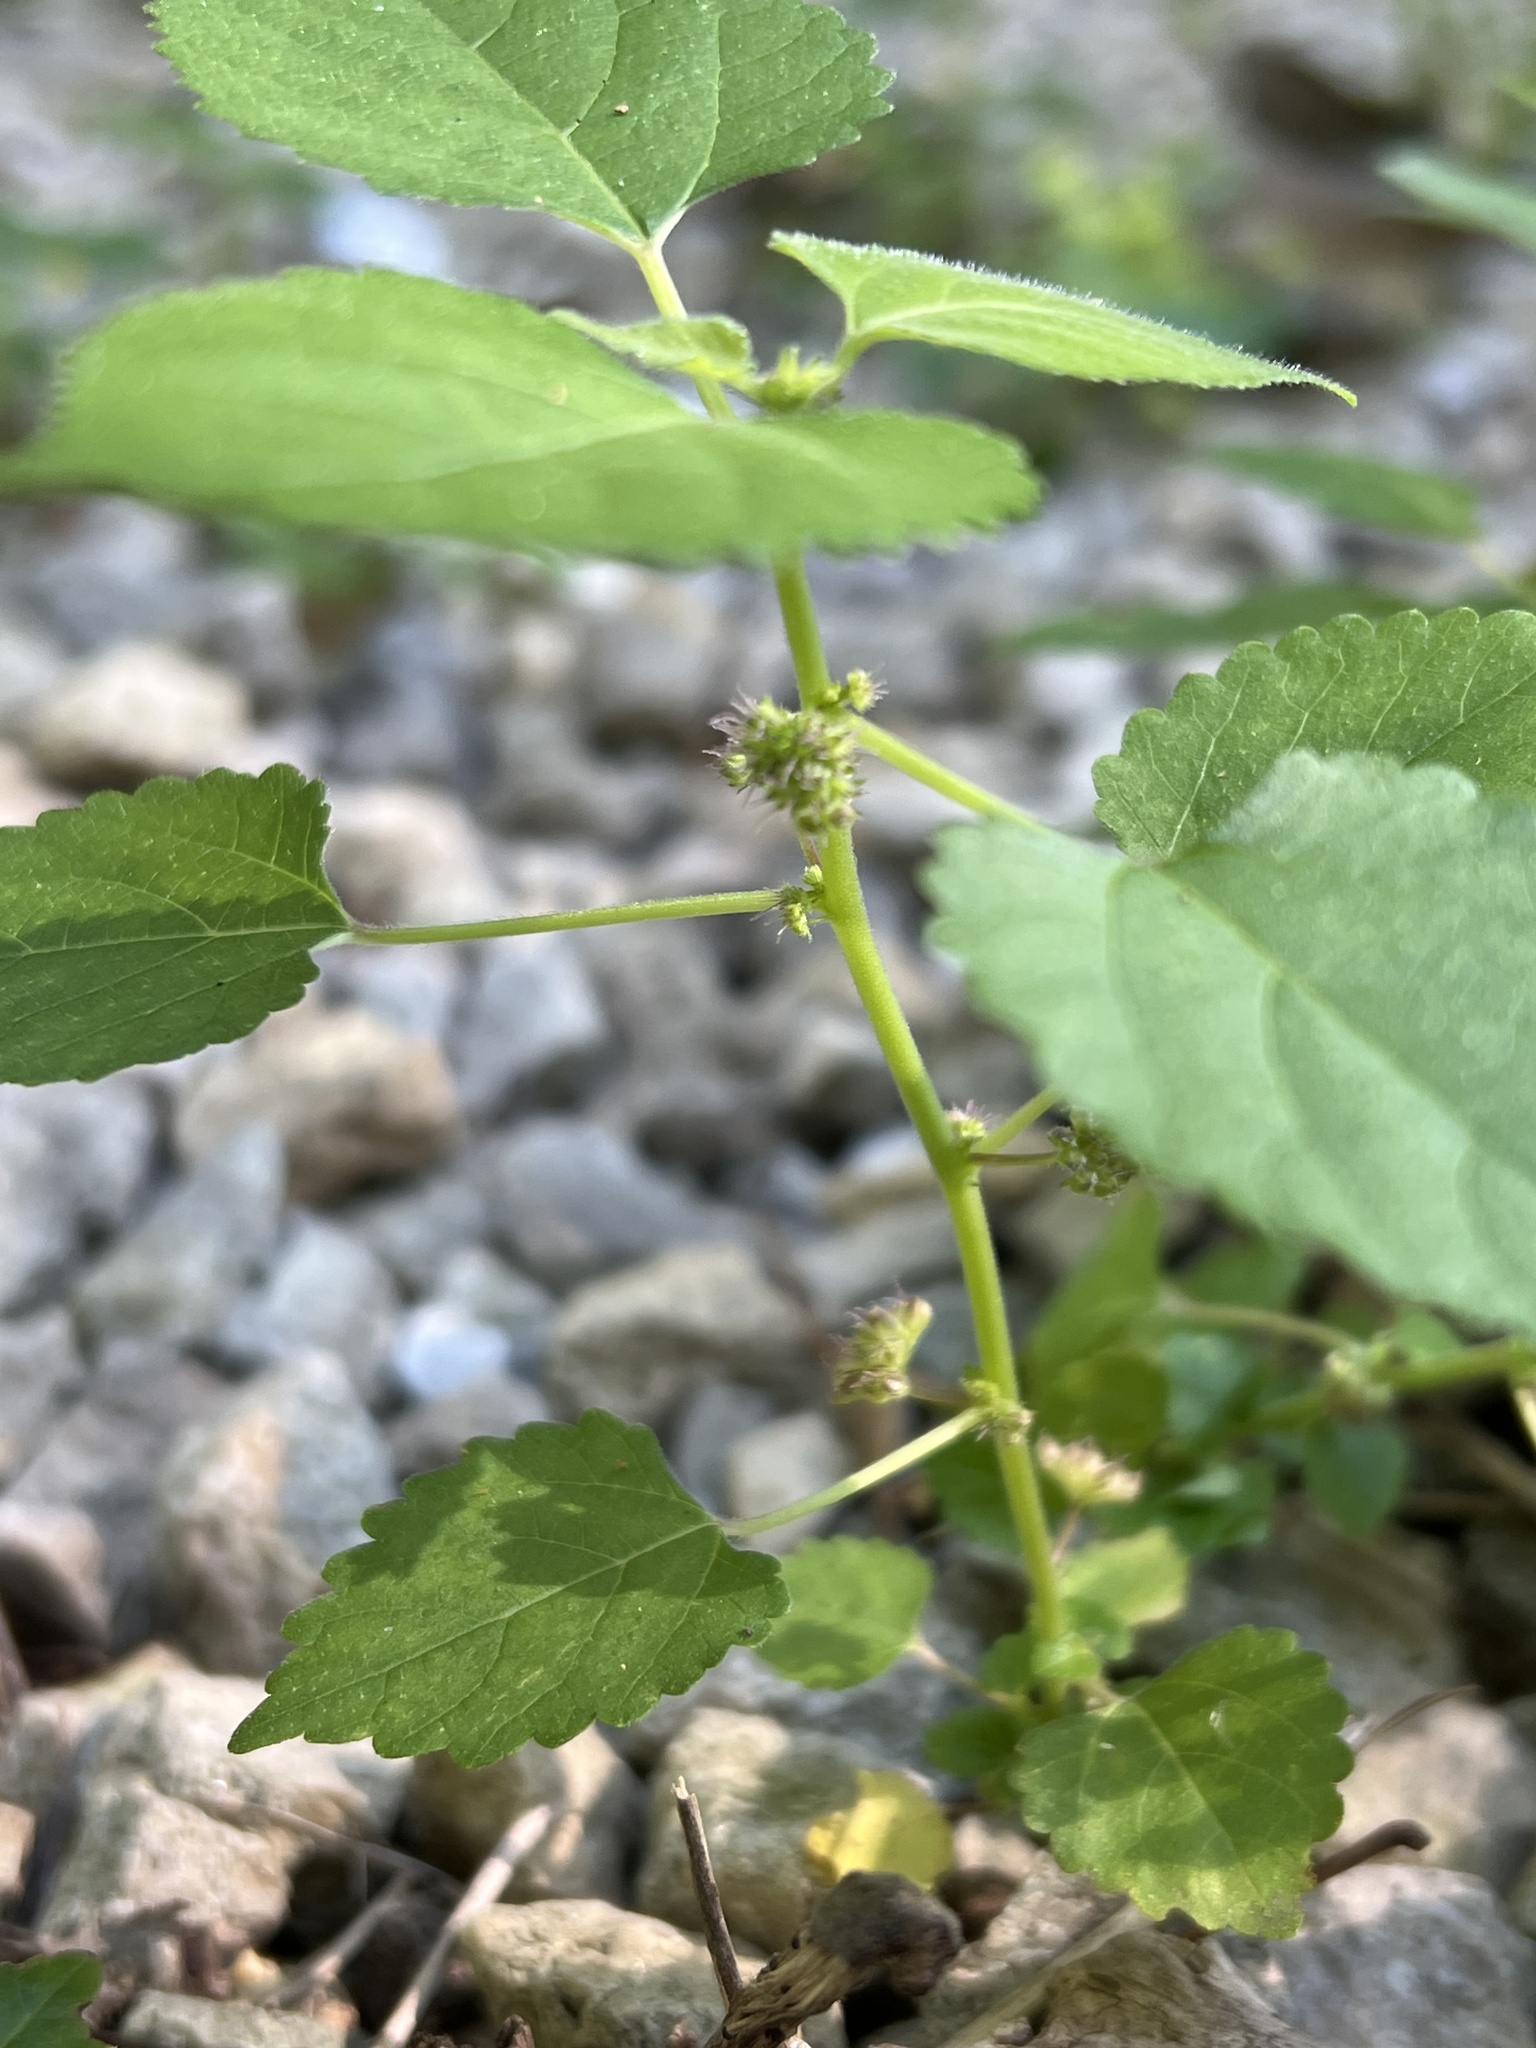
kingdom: Plantae
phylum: Tracheophyta
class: Magnoliopsida
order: Rosales
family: Moraceae
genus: Fatoua
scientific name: Fatoua villosa
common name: Hairy crabweed
